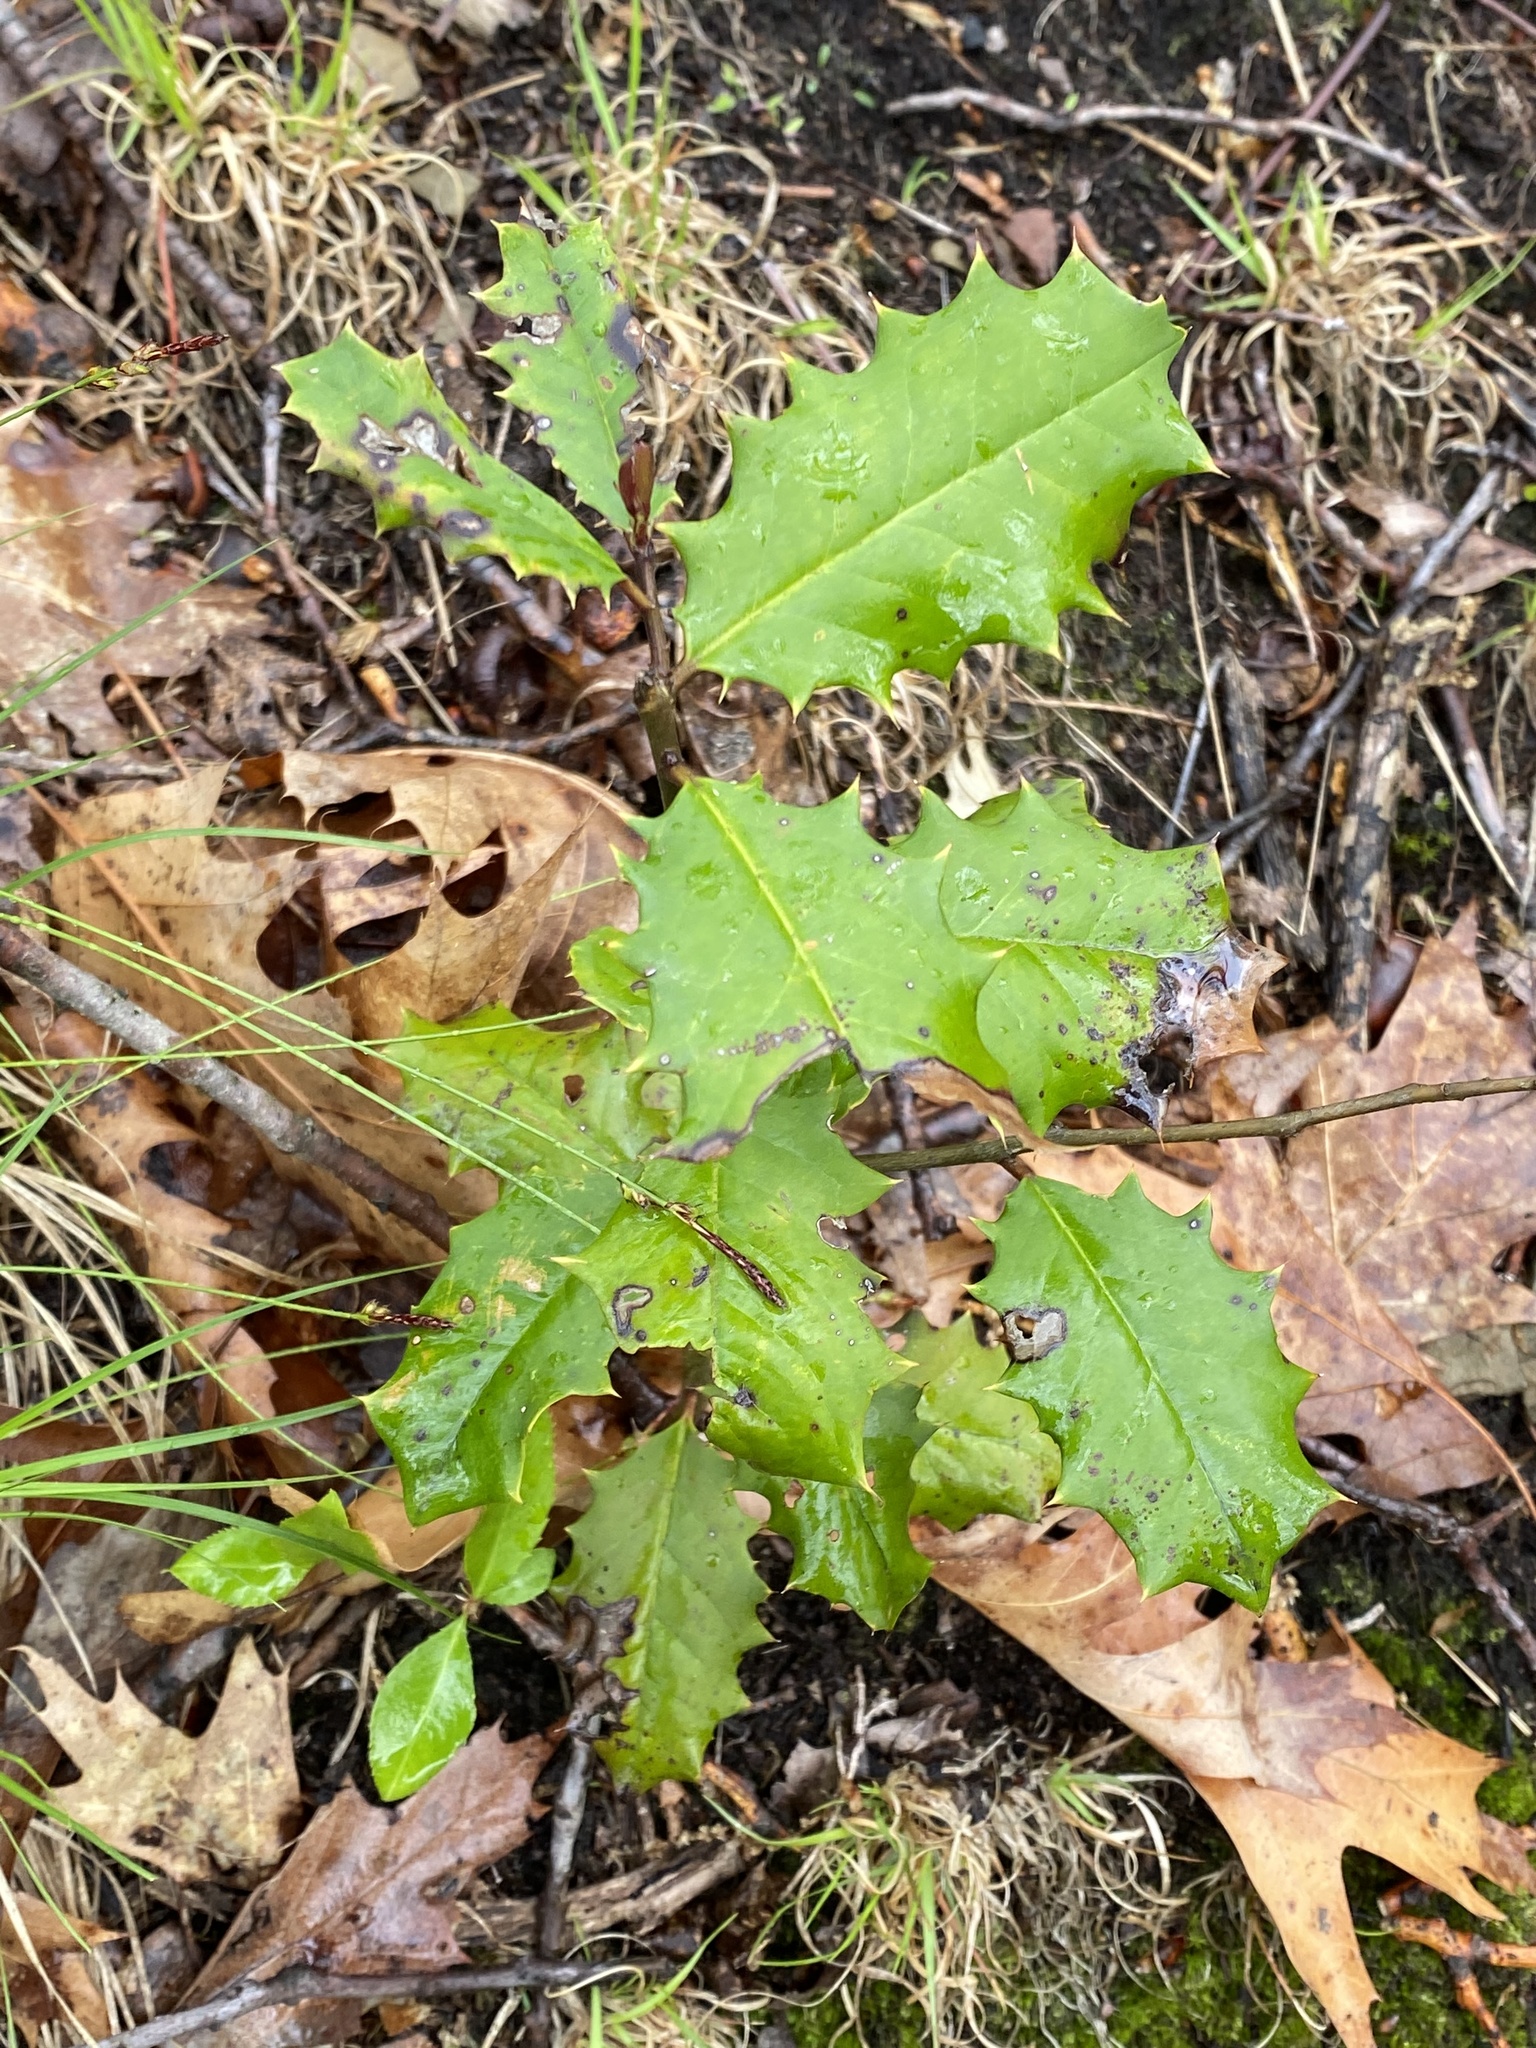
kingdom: Plantae
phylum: Tracheophyta
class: Magnoliopsida
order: Aquifoliales
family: Aquifoliaceae
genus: Ilex
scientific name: Ilex opaca
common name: American holly
